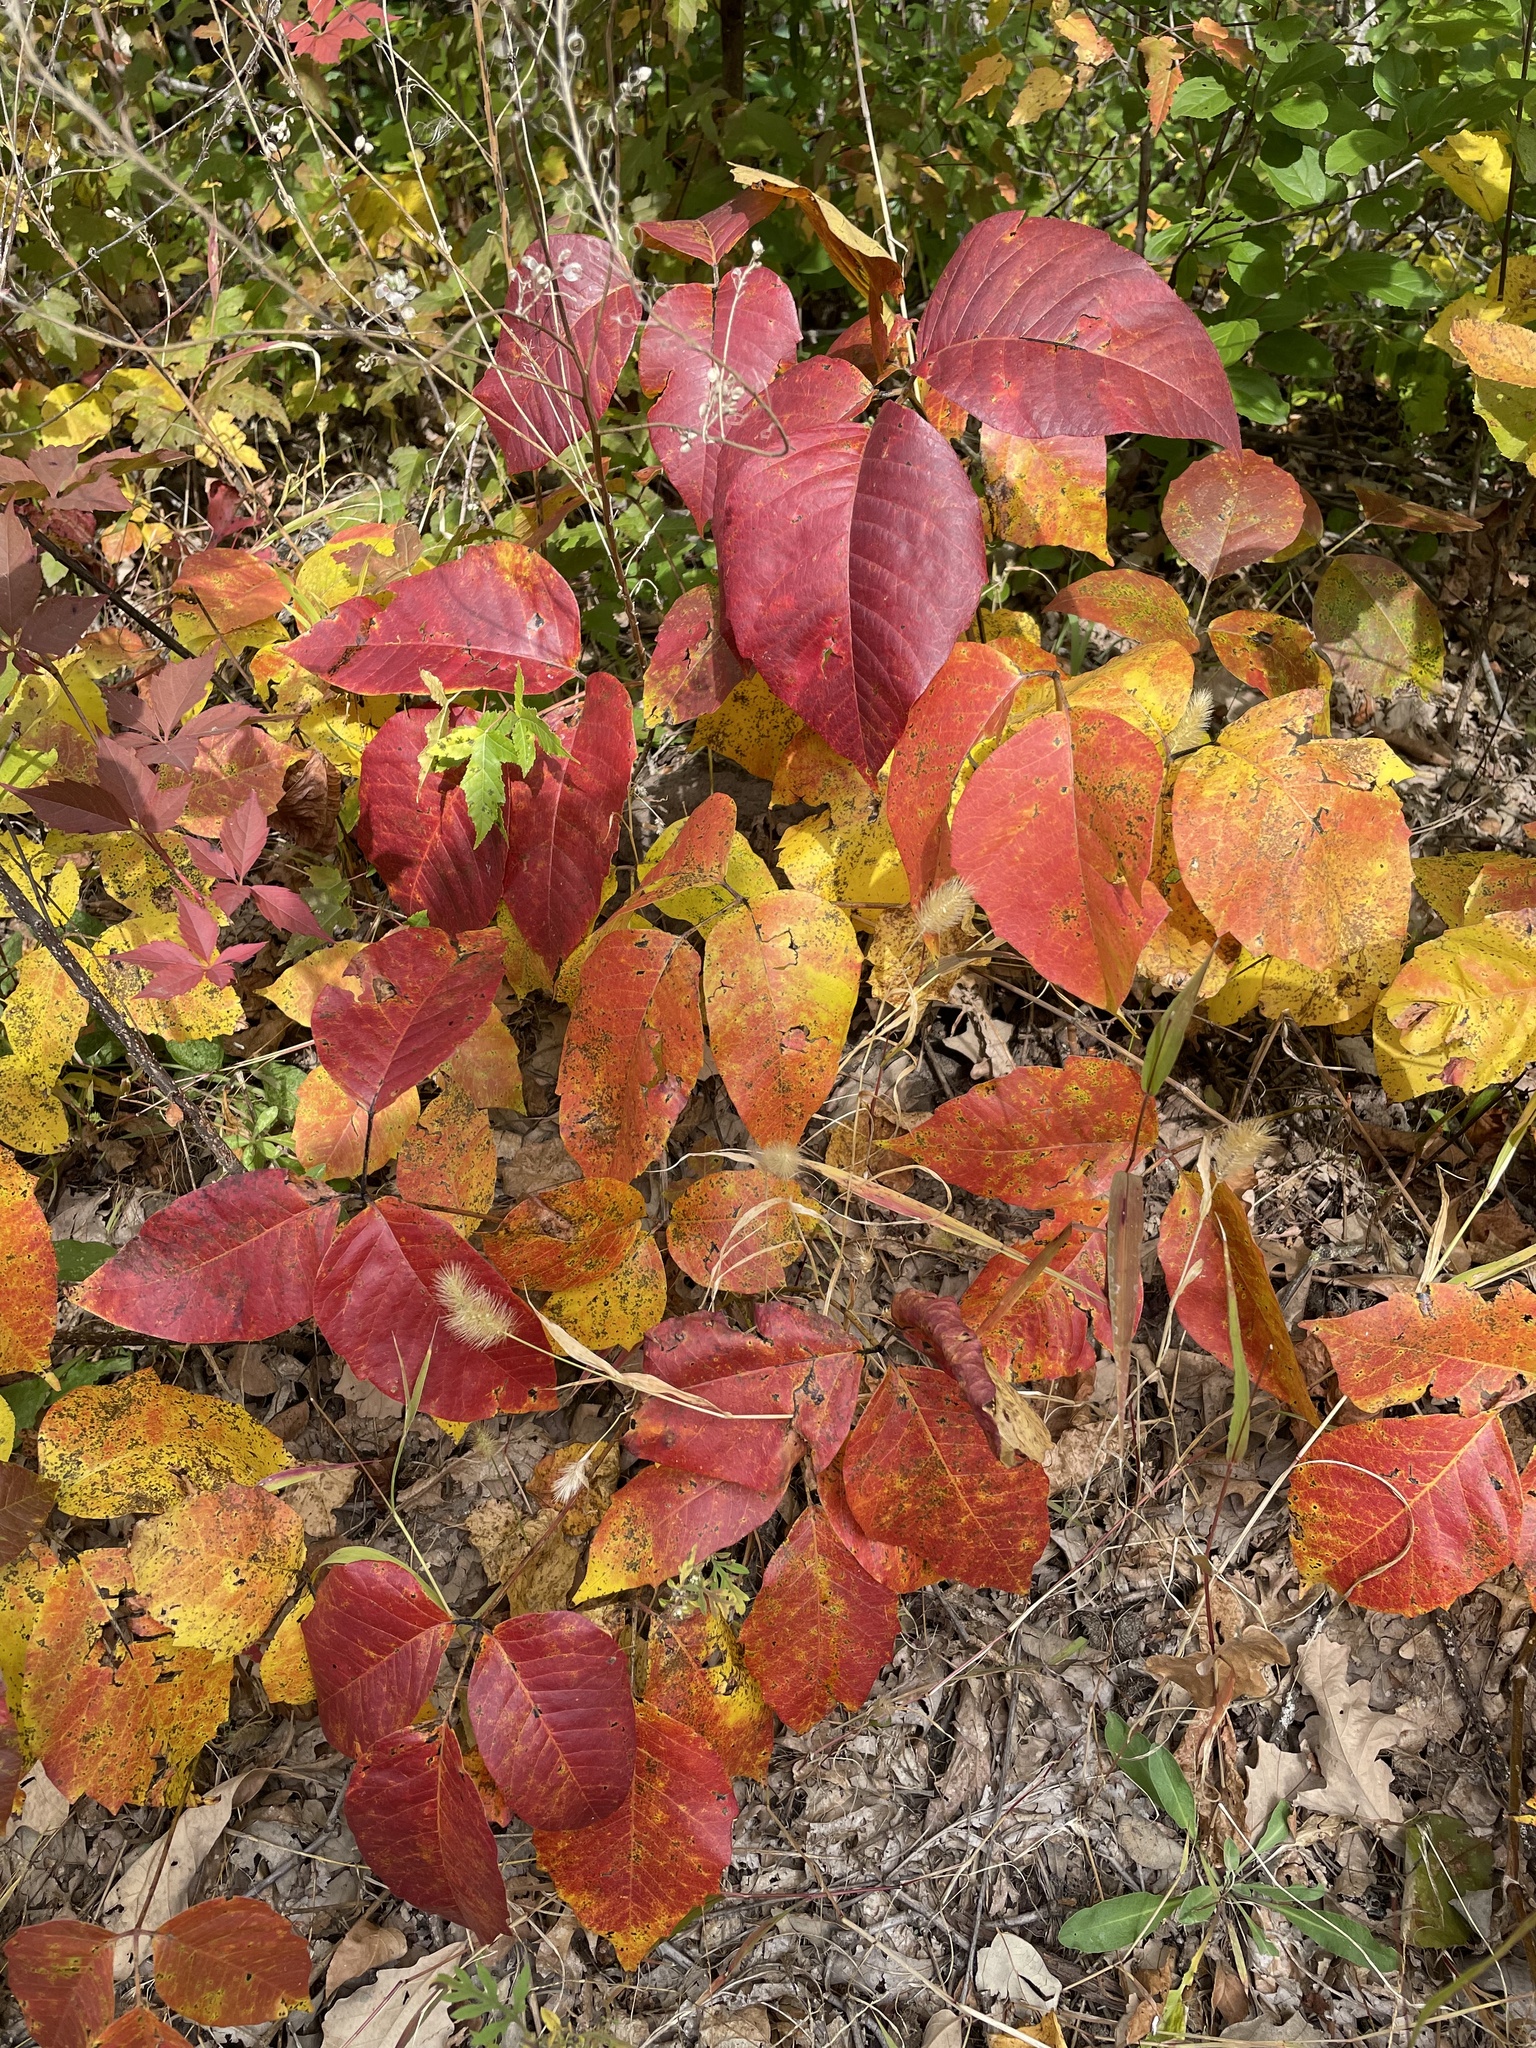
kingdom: Plantae
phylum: Tracheophyta
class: Magnoliopsida
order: Sapindales
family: Anacardiaceae
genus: Toxicodendron
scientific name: Toxicodendron rydbergii
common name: Rydberg's poison-ivy
